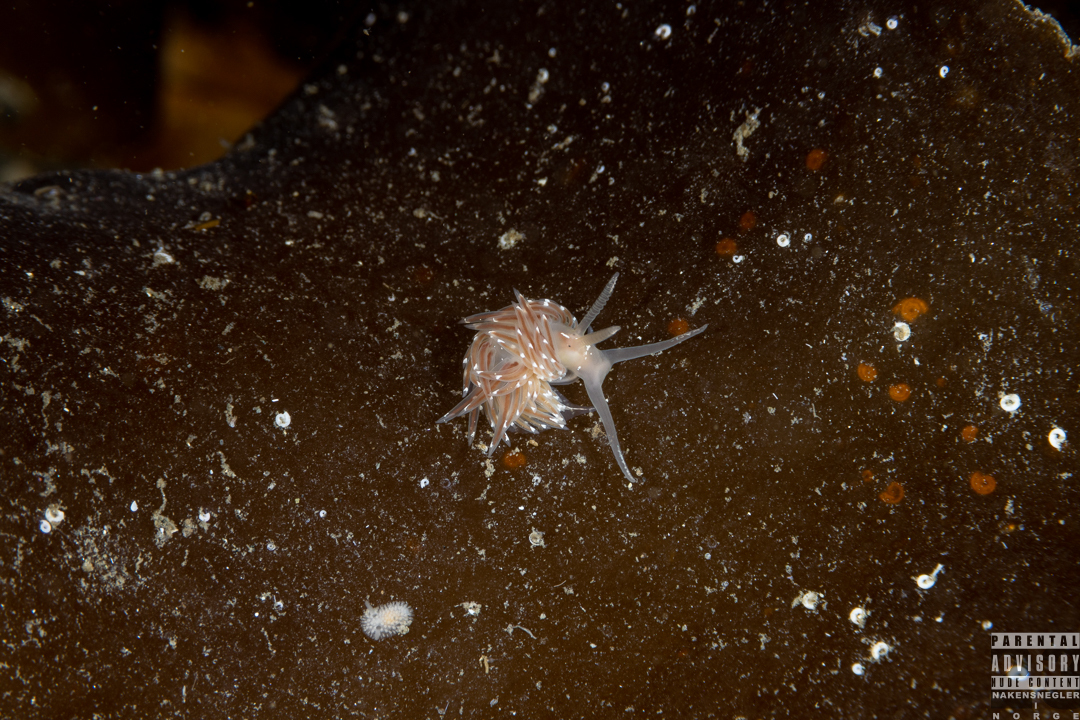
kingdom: Animalia
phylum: Mollusca
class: Gastropoda
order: Nudibranchia
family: Facelinidae
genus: Facelina
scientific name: Facelina bostoniensis
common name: Boston facelina
